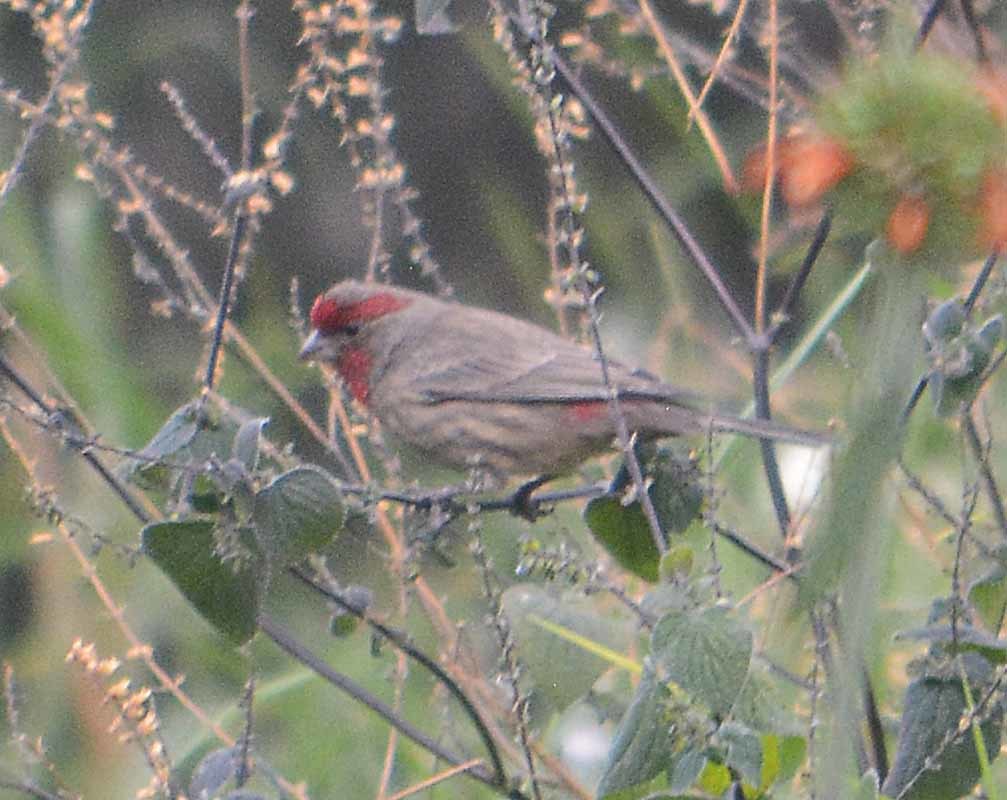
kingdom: Animalia
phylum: Chordata
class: Aves
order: Passeriformes
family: Fringillidae
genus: Haemorhous
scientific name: Haemorhous mexicanus
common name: House finch
